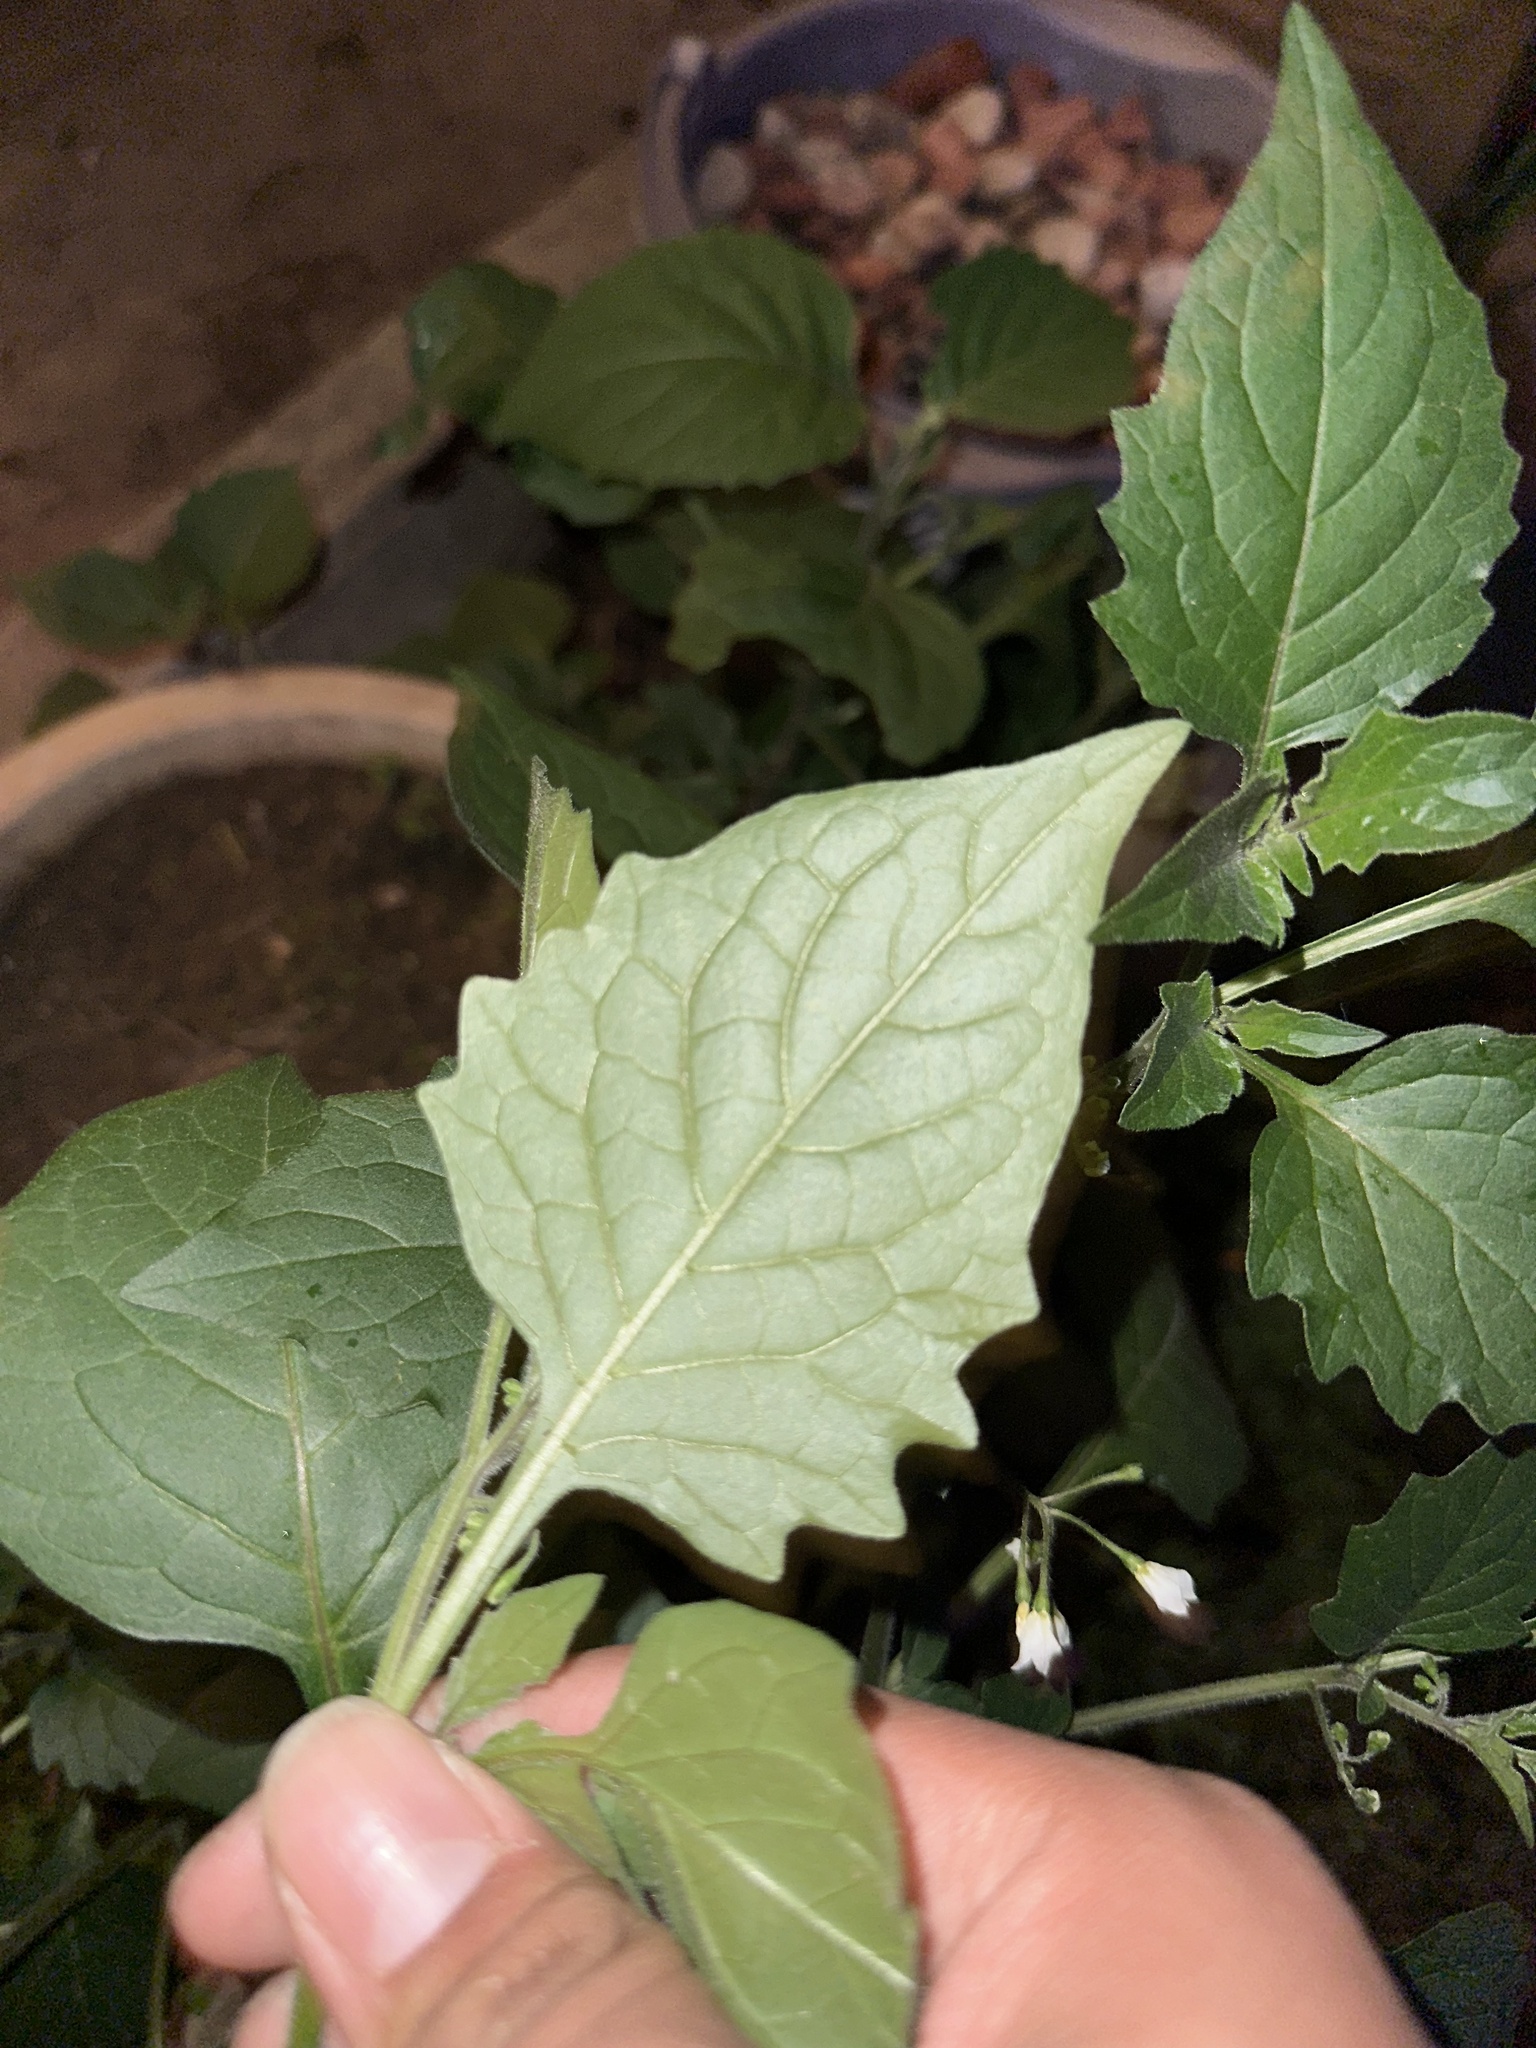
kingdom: Plantae
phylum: Tracheophyta
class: Magnoliopsida
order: Solanales
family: Solanaceae
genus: Solanum
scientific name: Solanum nigrum
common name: Black nightshade
